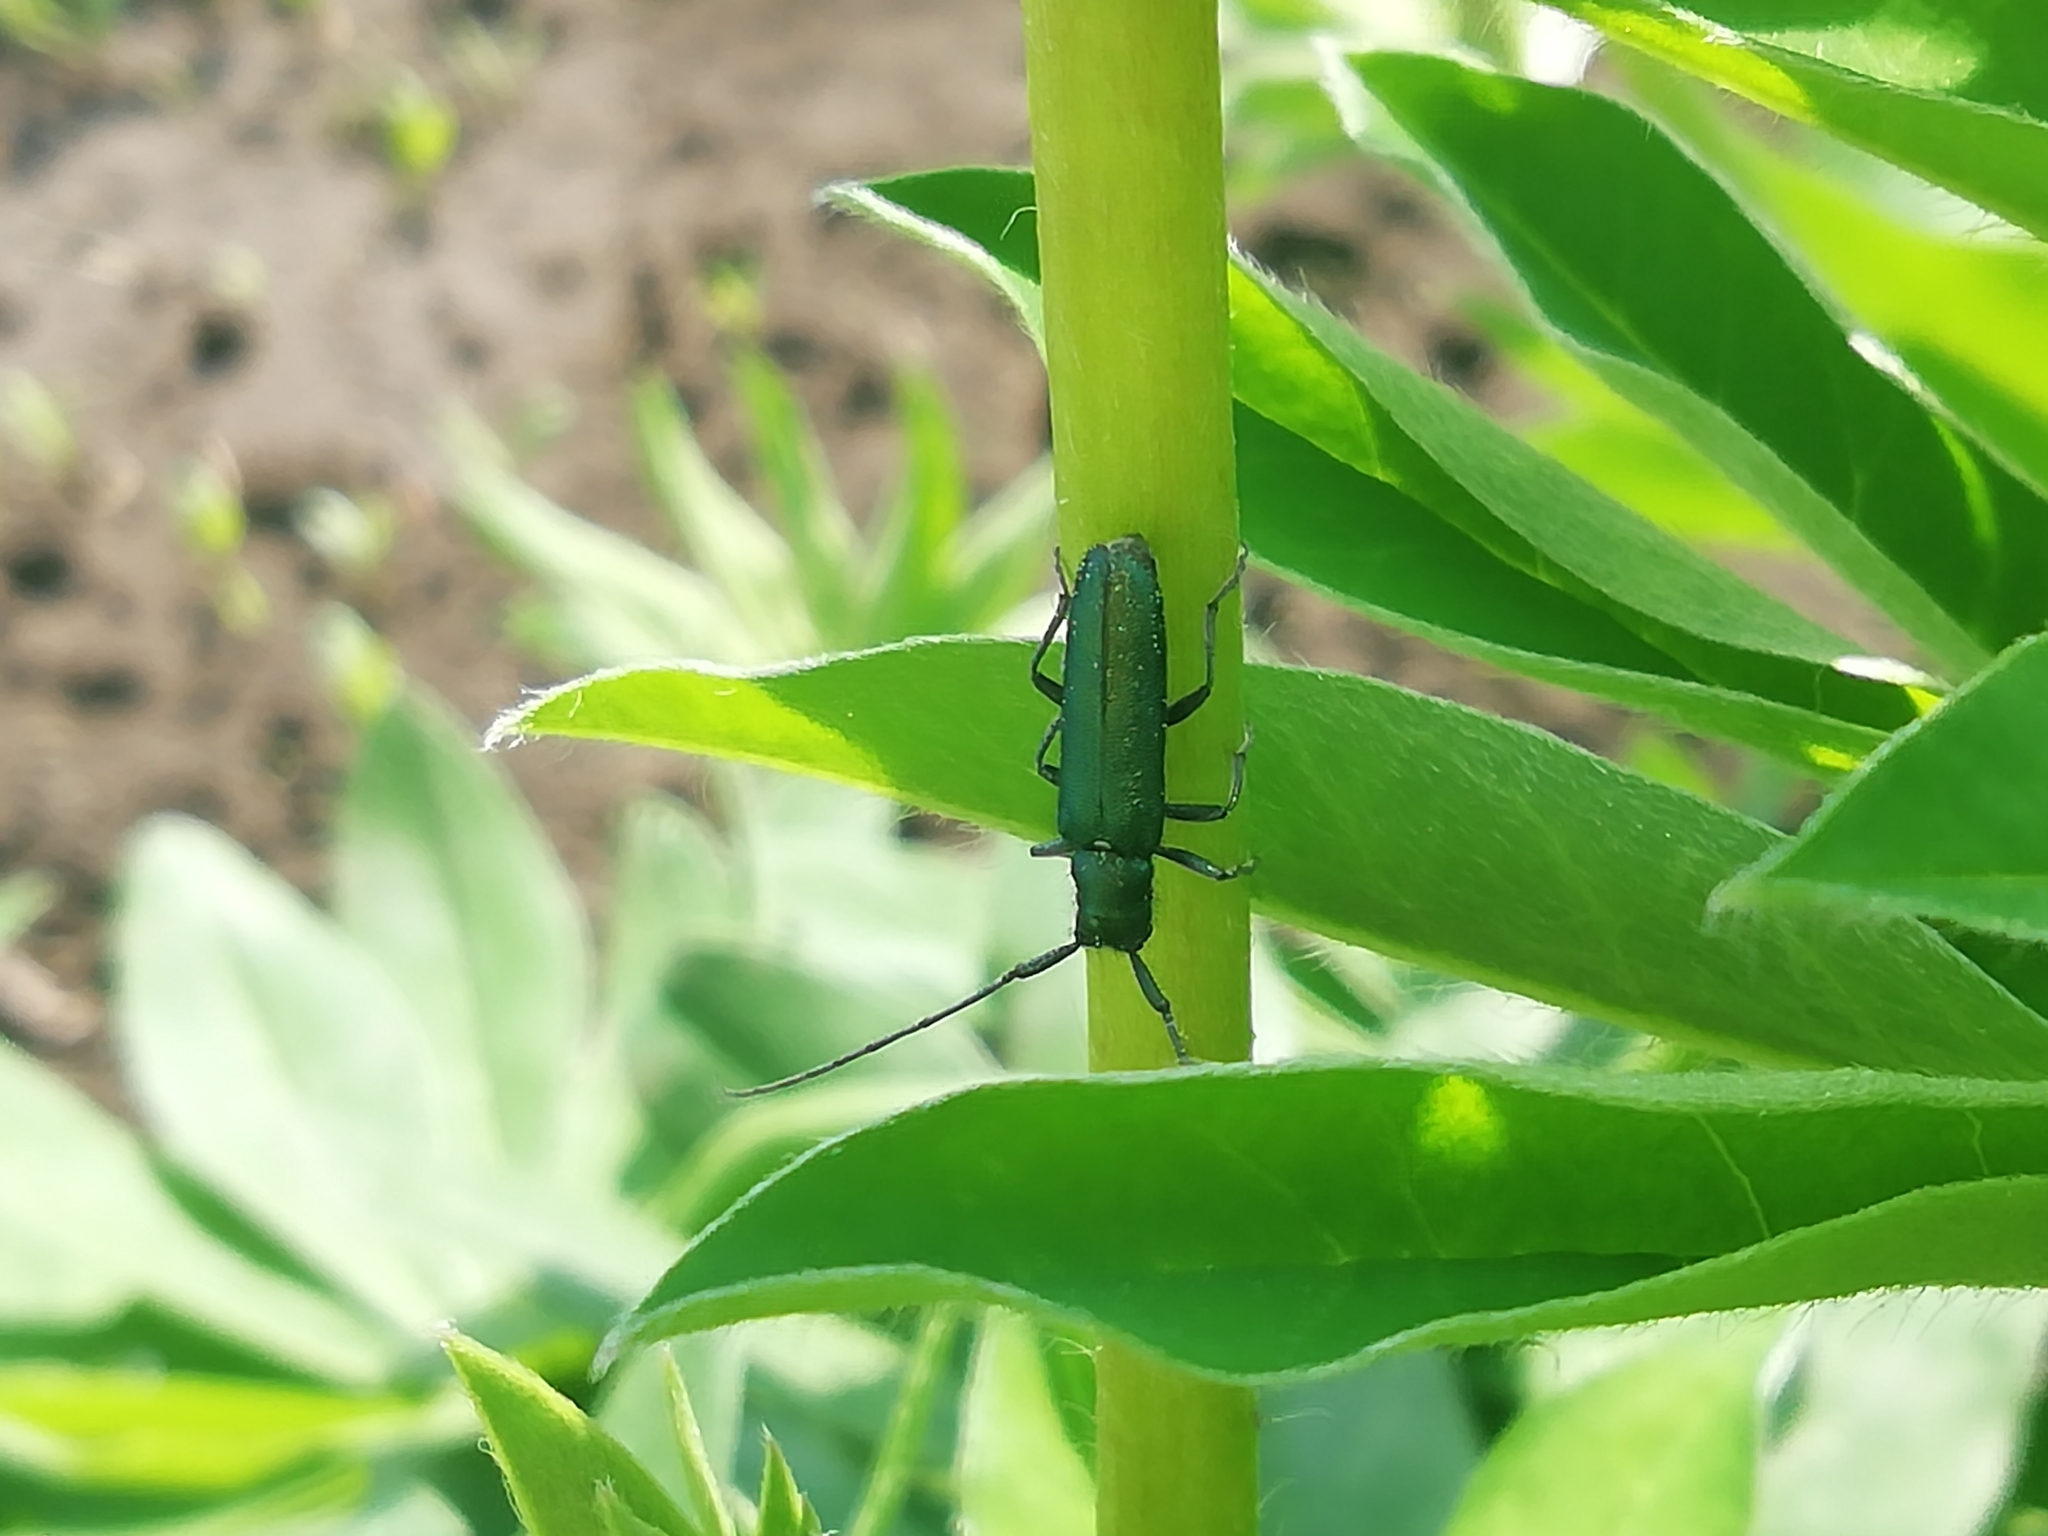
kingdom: Animalia
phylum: Arthropoda
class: Insecta
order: Coleoptera
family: Cerambycidae
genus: Agapanthia
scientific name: Agapanthia intermedia
